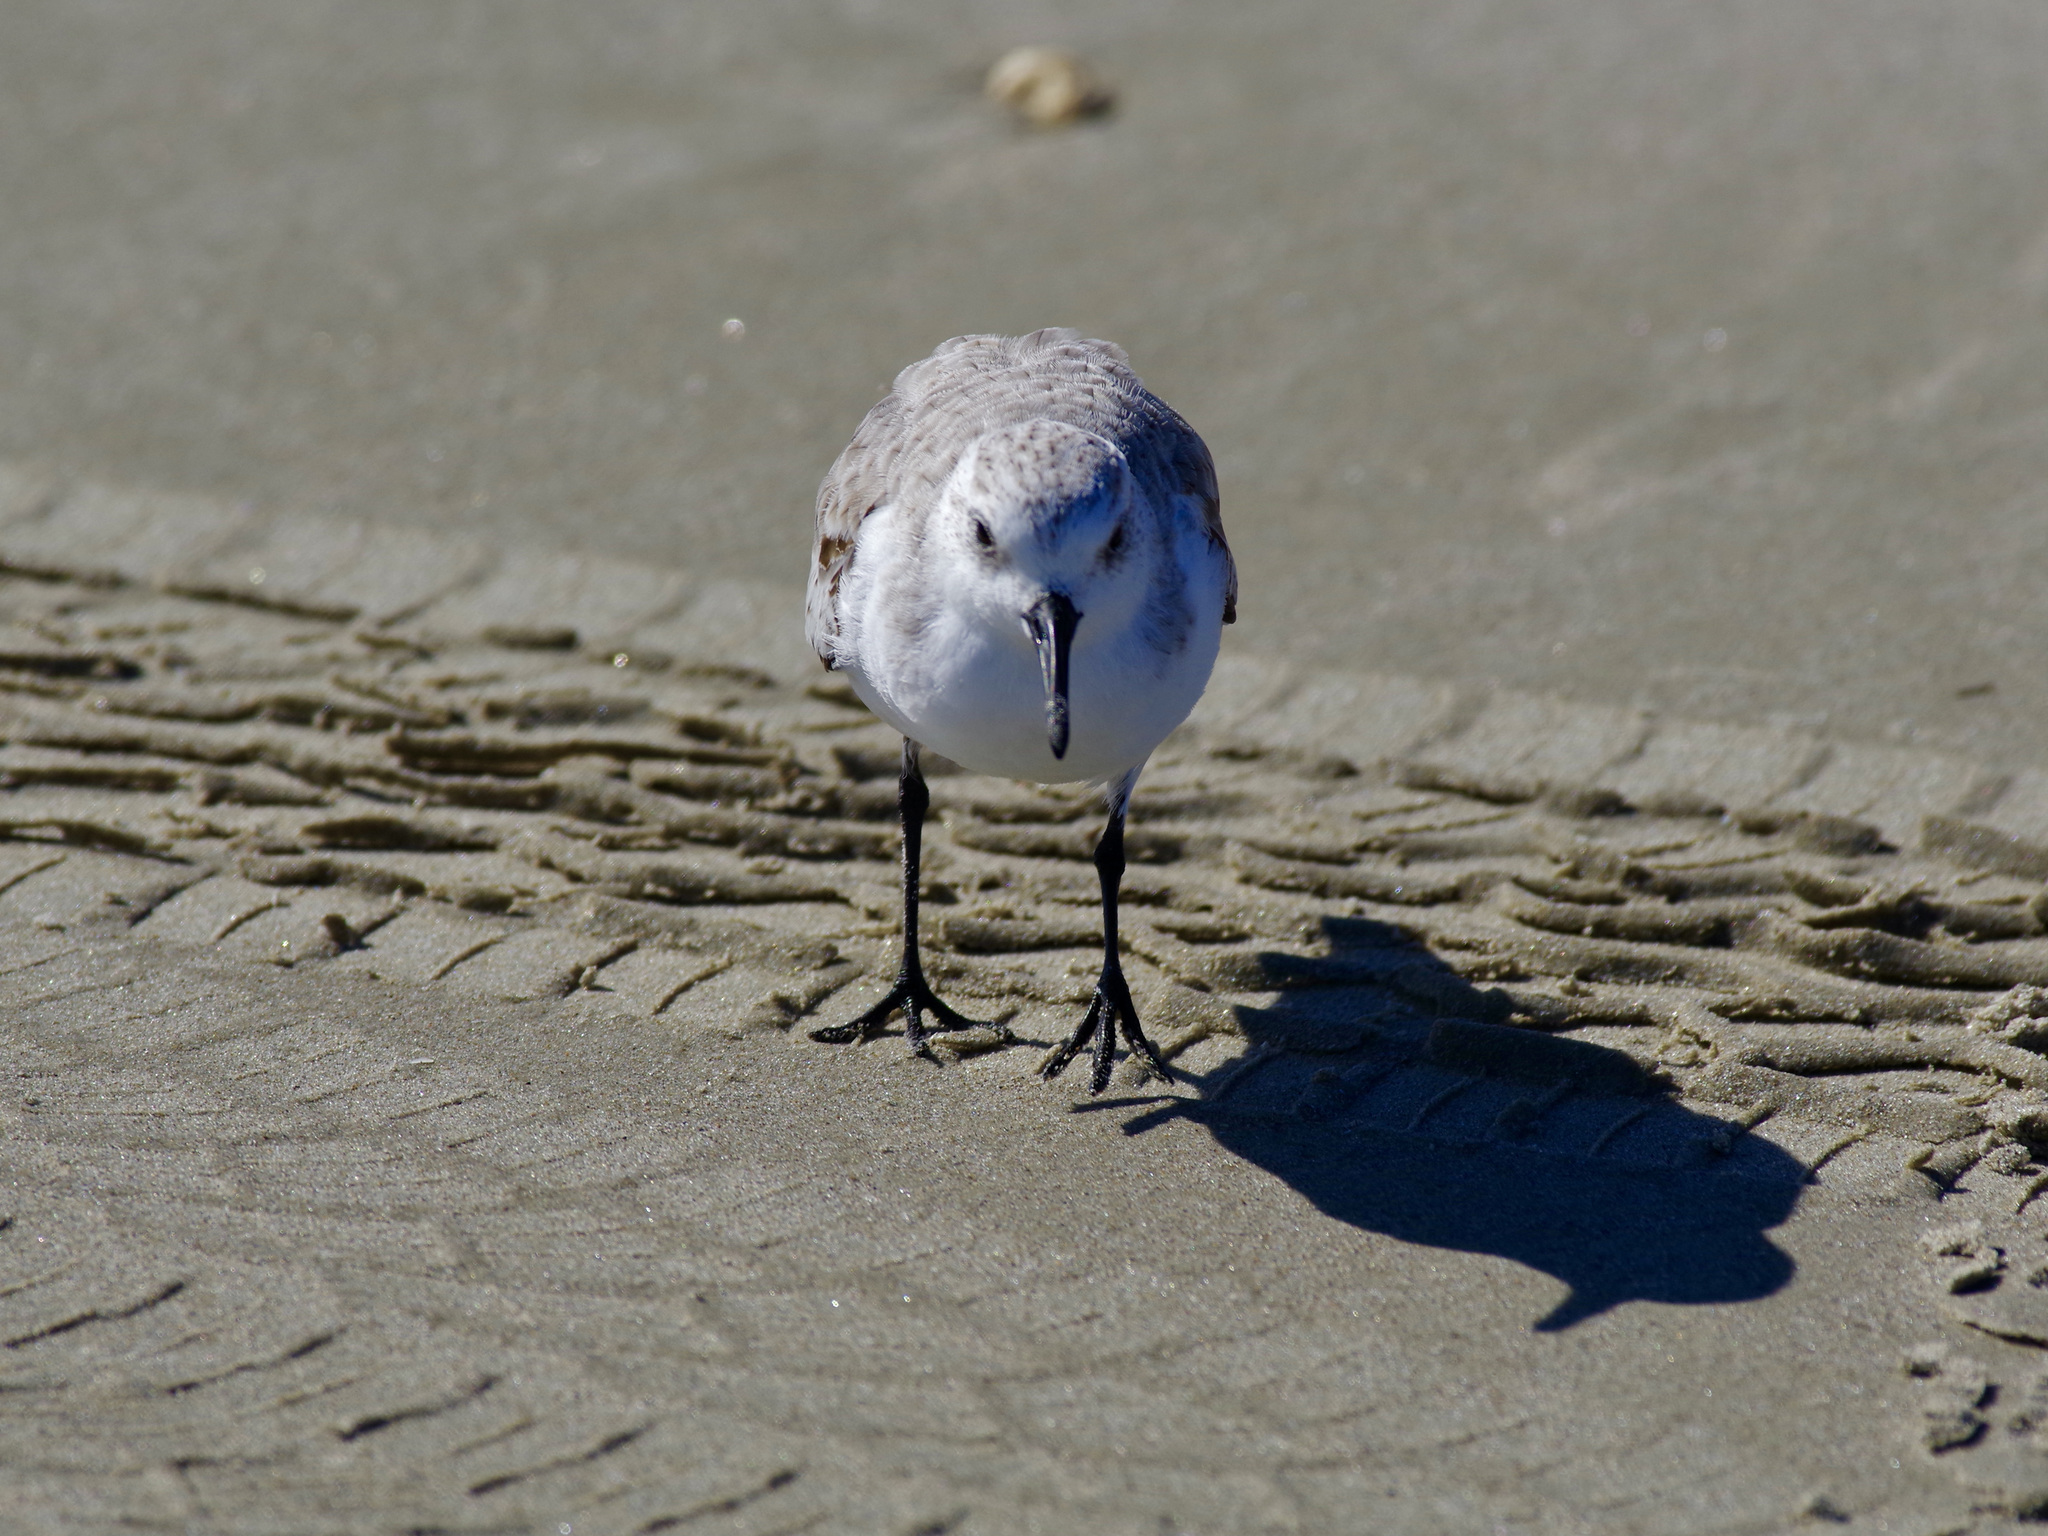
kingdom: Animalia
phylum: Chordata
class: Aves
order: Charadriiformes
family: Scolopacidae
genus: Calidris
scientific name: Calidris alba
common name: Sanderling
